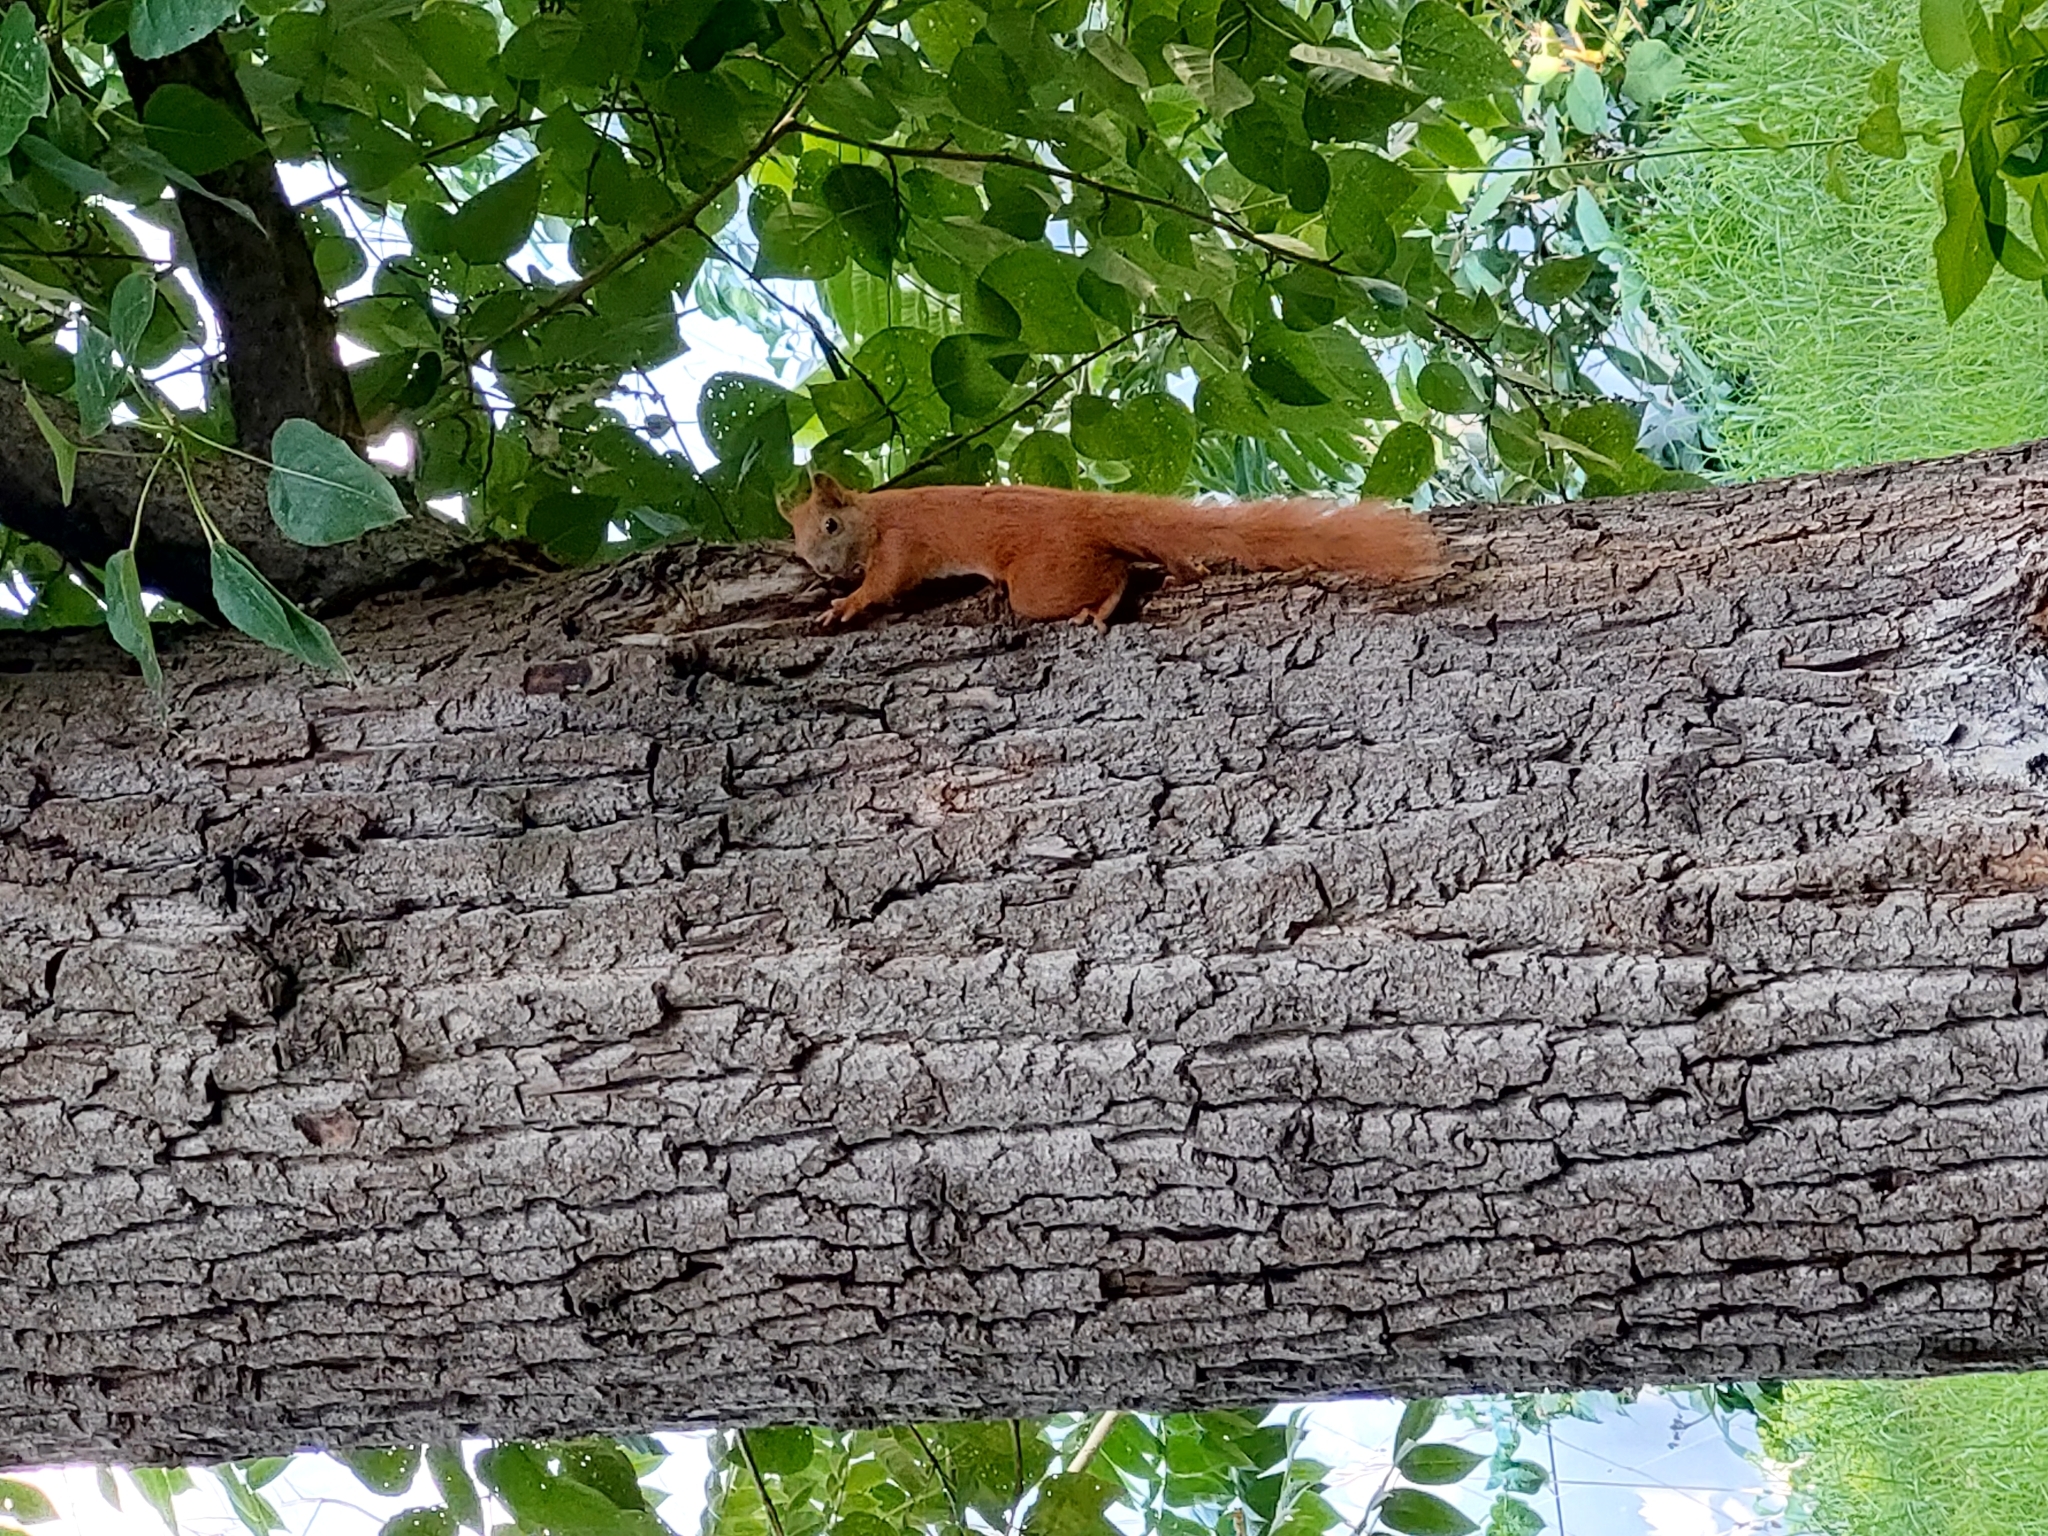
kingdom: Animalia
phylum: Chordata
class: Mammalia
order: Rodentia
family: Sciuridae
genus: Sciurus
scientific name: Sciurus vulgaris
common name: Eurasian red squirrel
